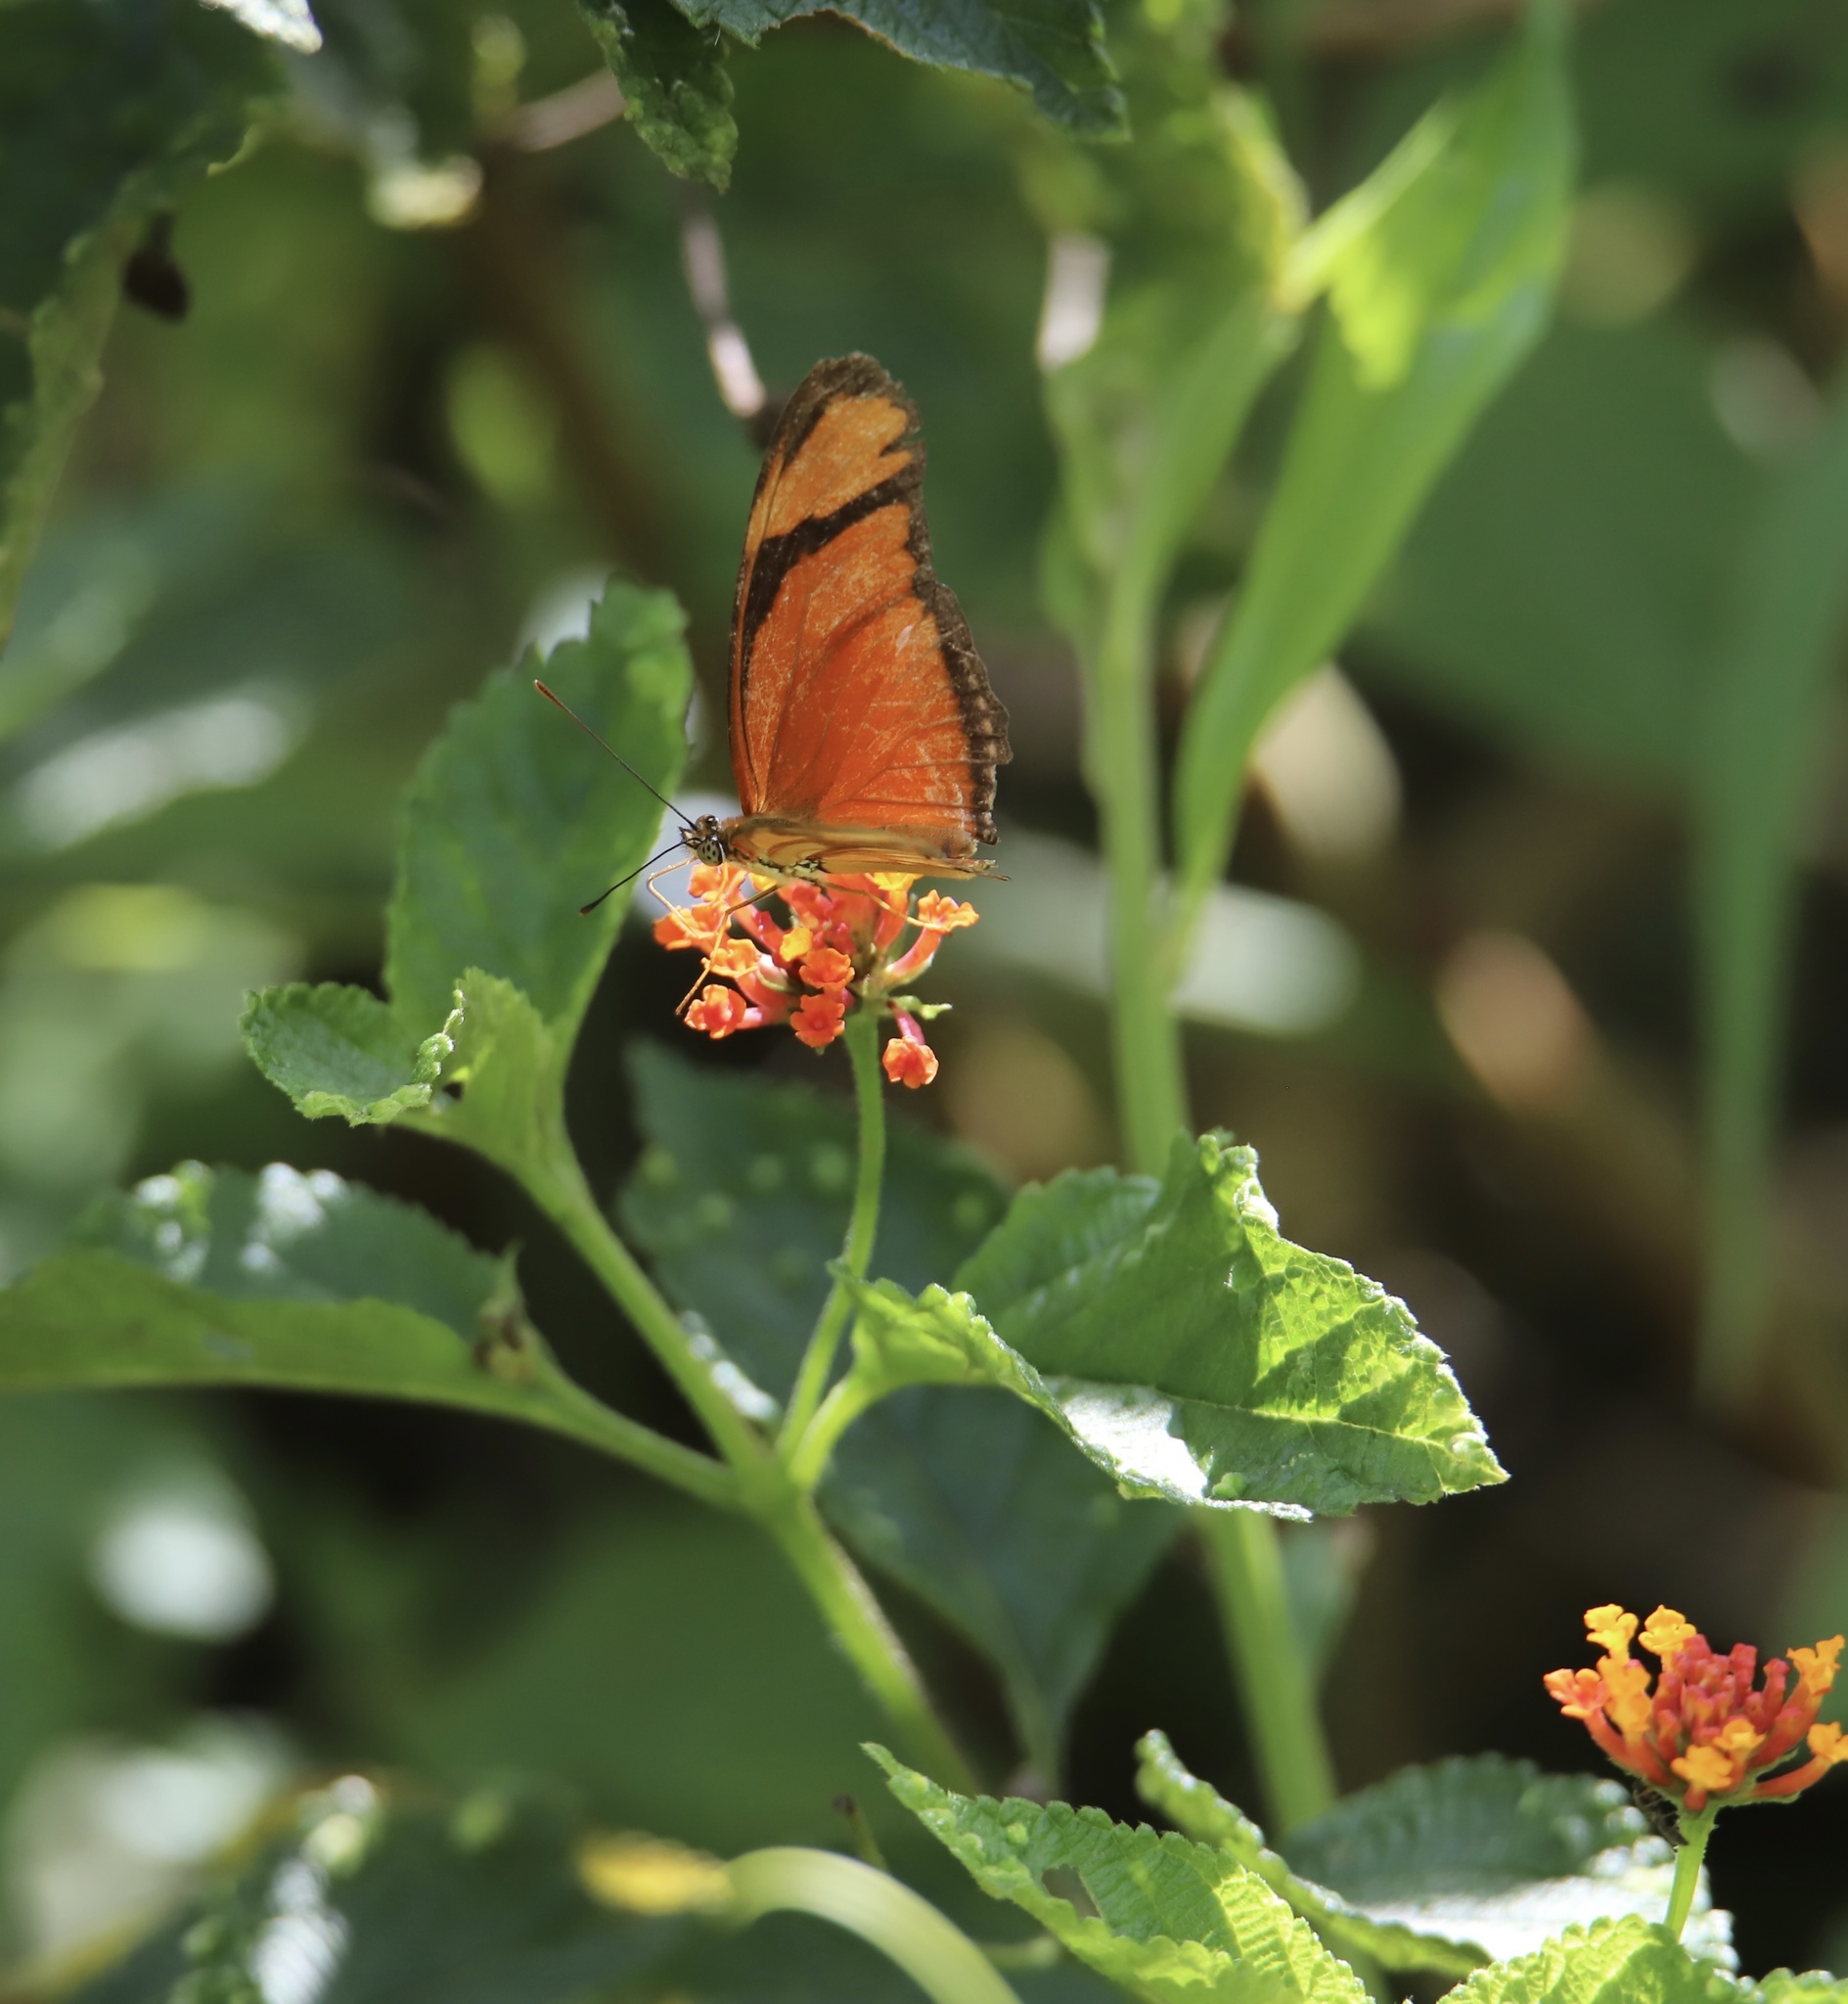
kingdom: Animalia
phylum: Arthropoda
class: Insecta
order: Lepidoptera
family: Nymphalidae
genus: Dryas
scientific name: Dryas iulia
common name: Flambeau
